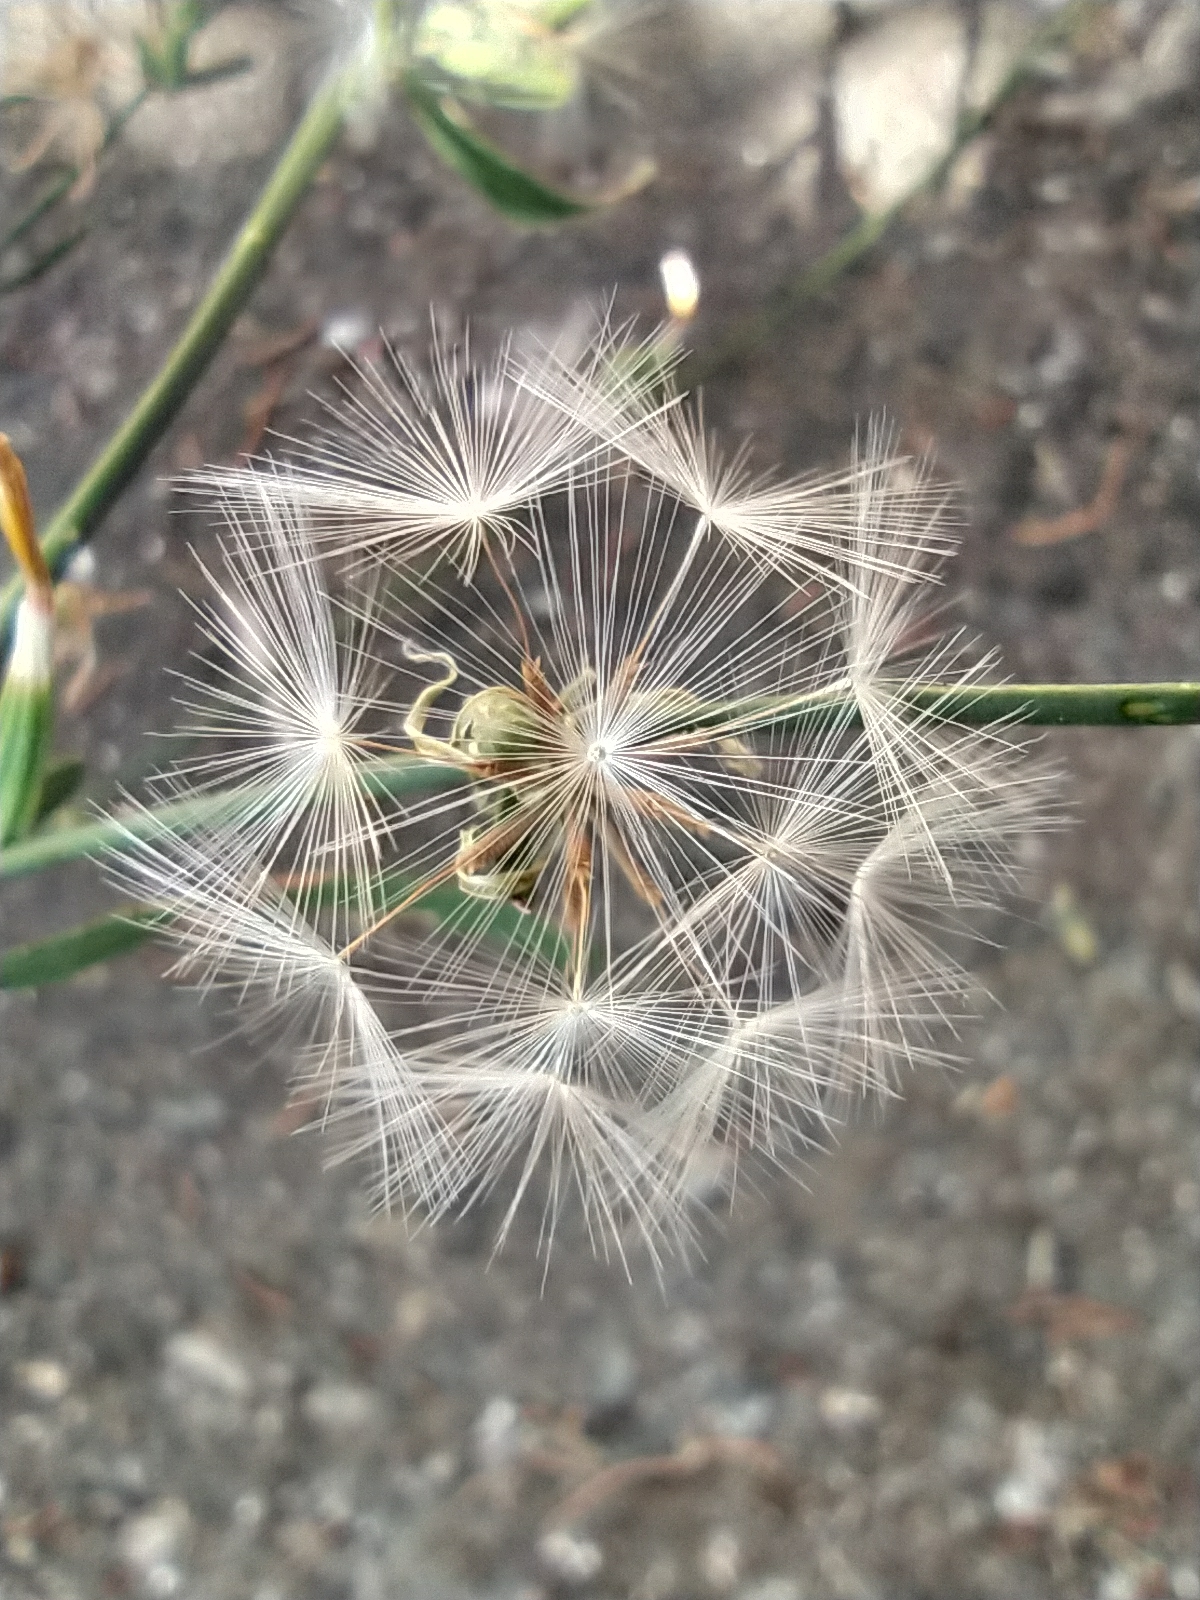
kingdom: Plantae
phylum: Tracheophyta
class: Magnoliopsida
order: Asterales
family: Asteraceae
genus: Chondrilla
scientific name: Chondrilla juncea
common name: Skeleton weed
